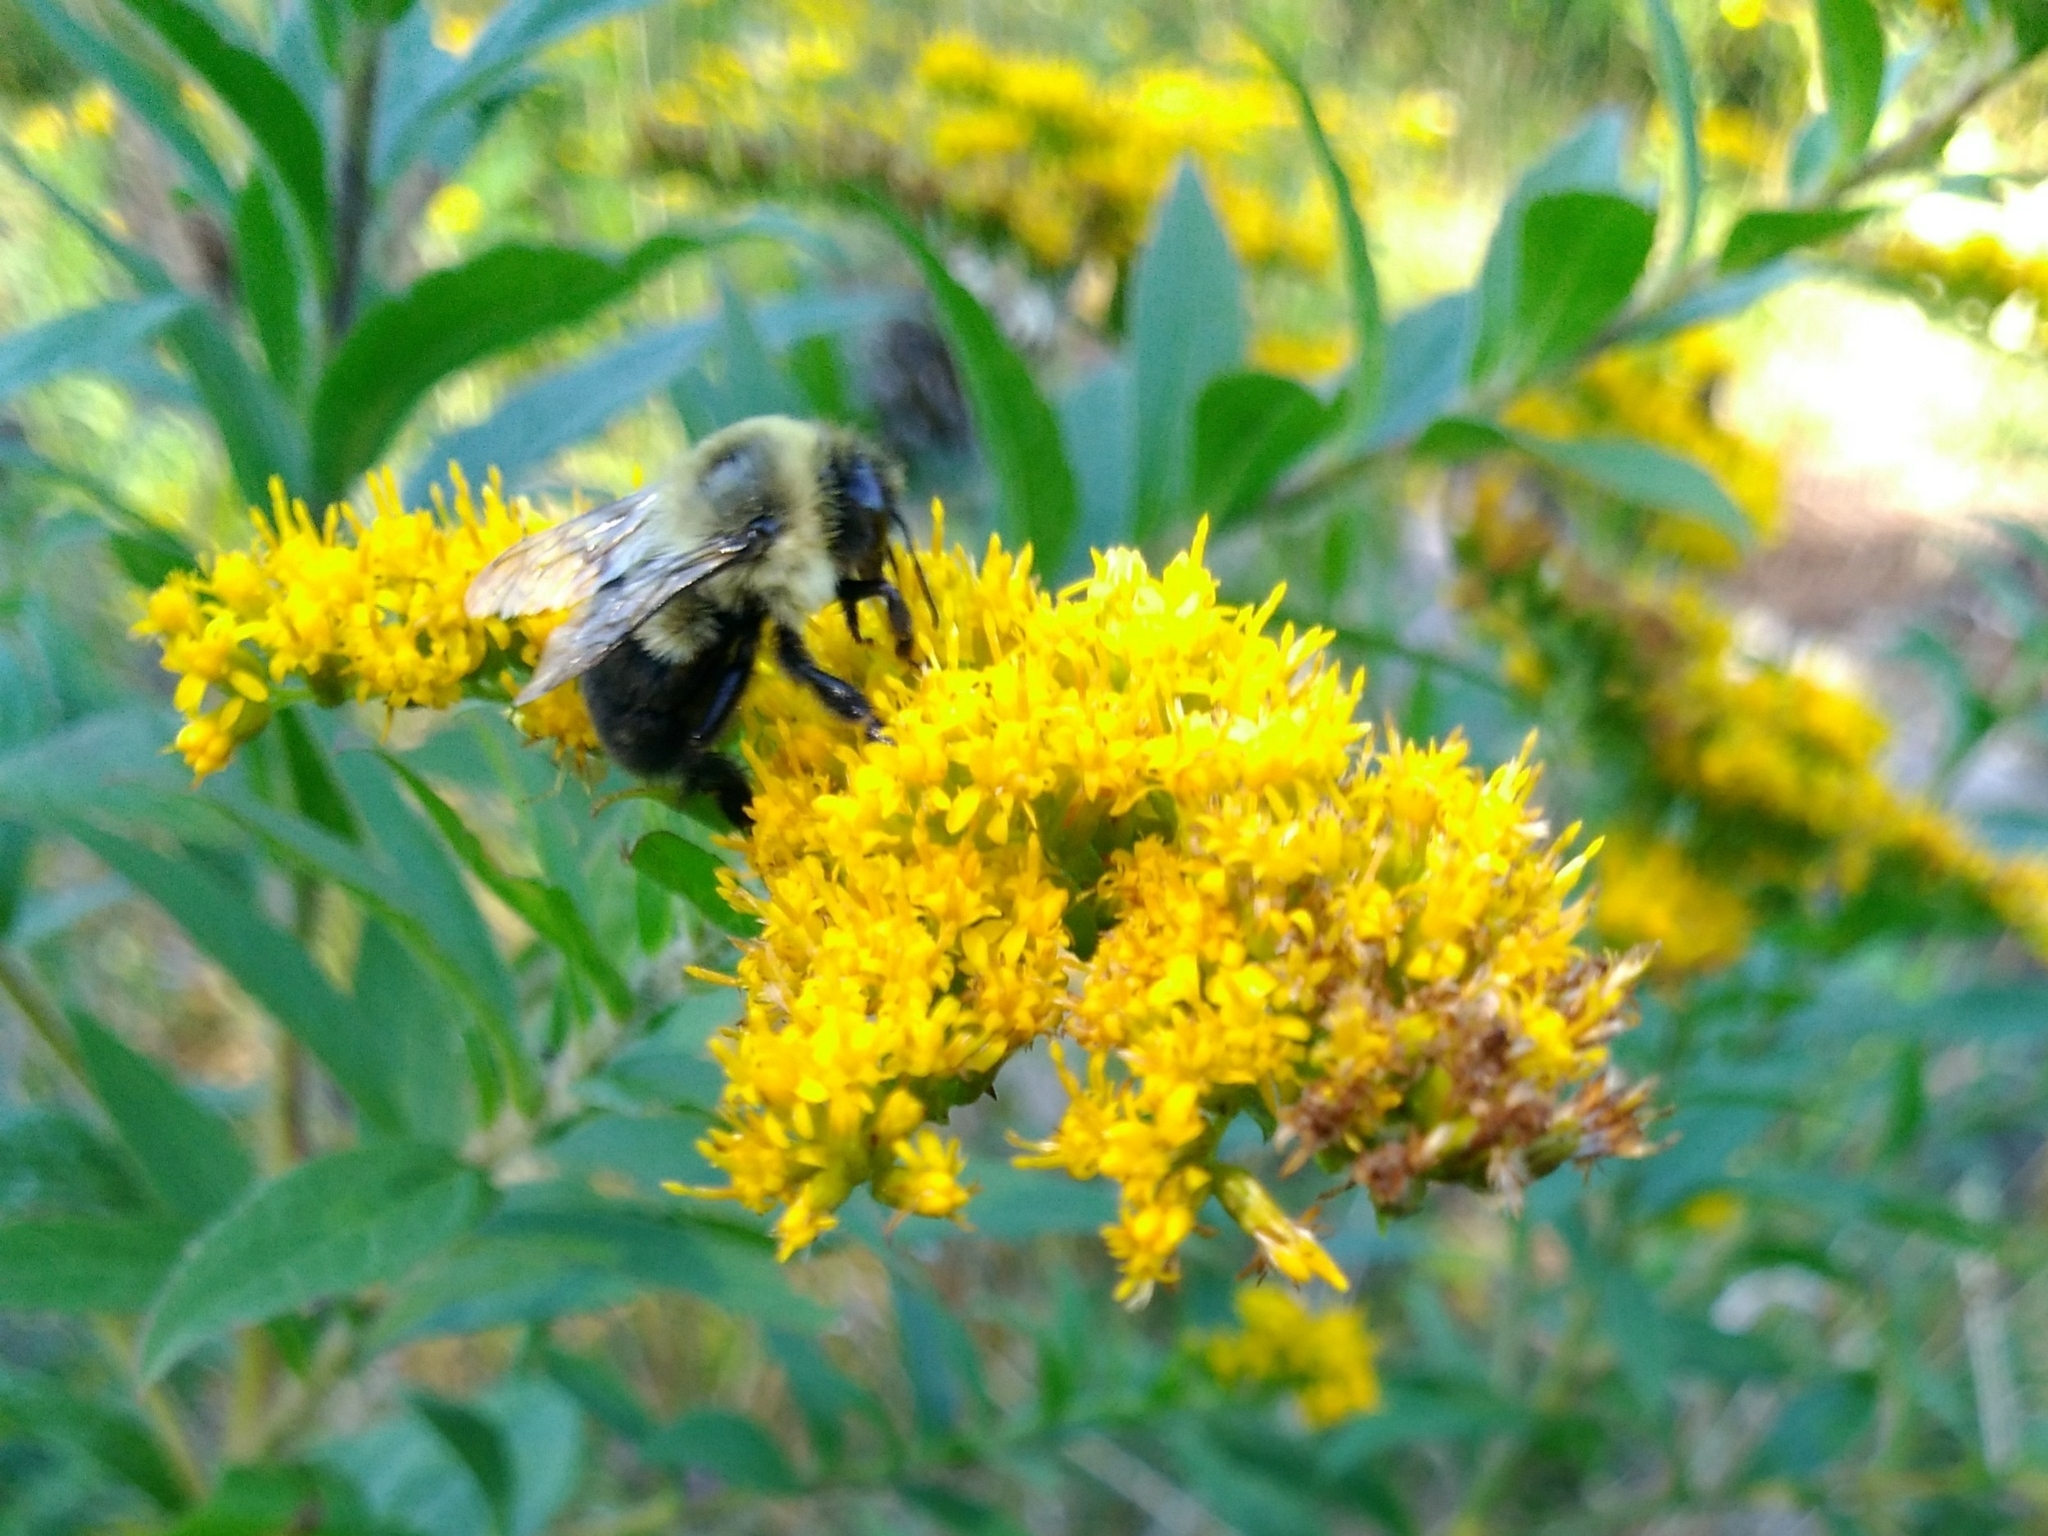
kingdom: Animalia
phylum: Arthropoda
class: Insecta
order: Hymenoptera
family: Apidae
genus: Bombus
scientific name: Bombus impatiens
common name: Common eastern bumble bee
